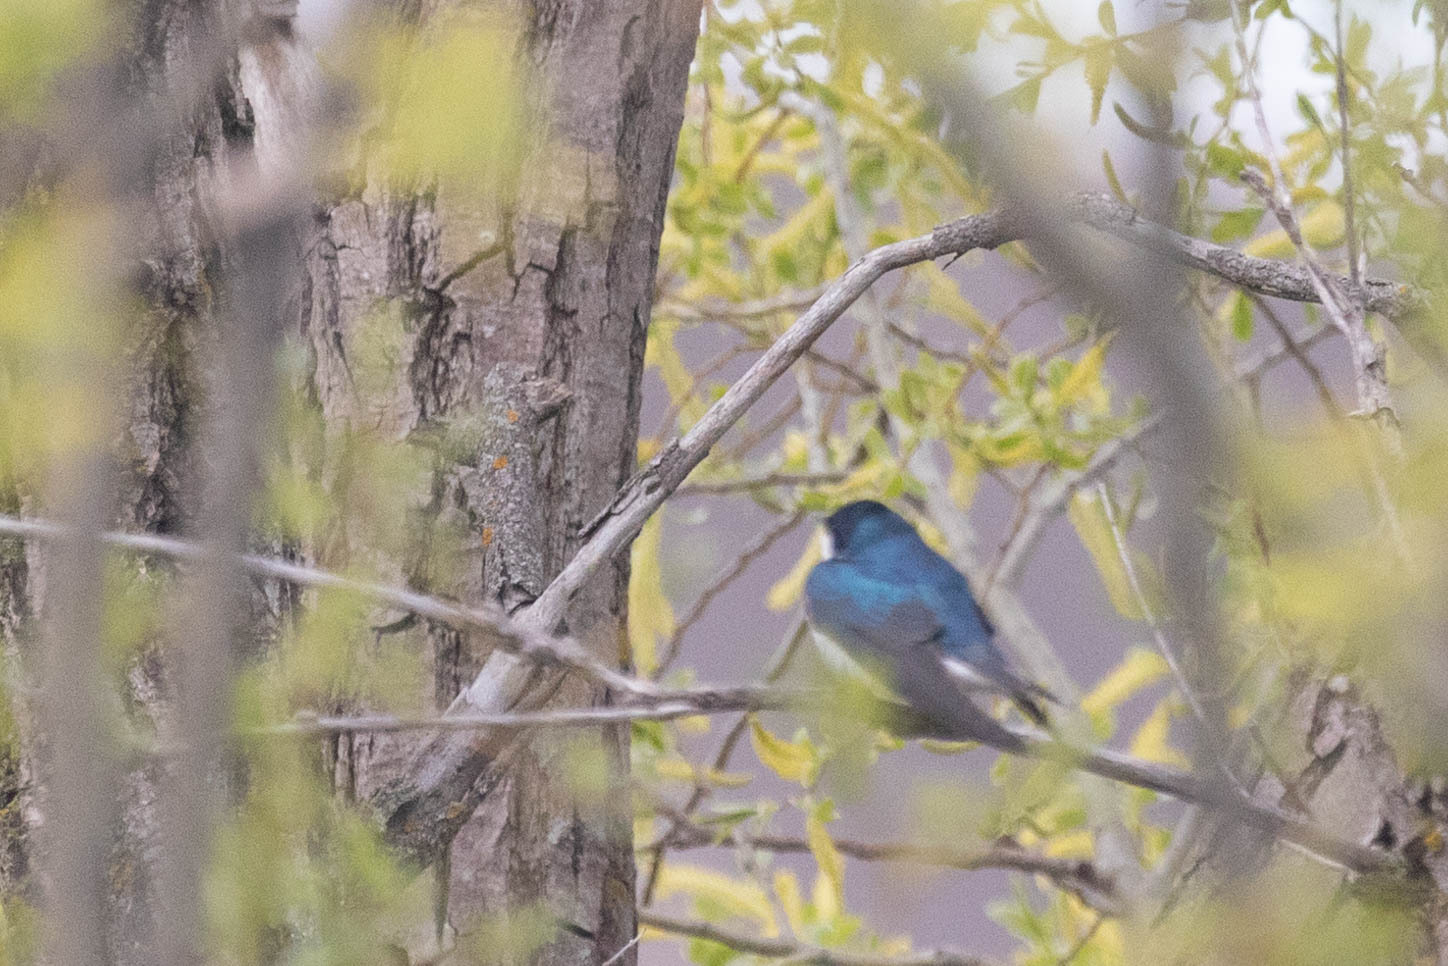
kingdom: Animalia
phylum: Chordata
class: Aves
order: Passeriformes
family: Hirundinidae
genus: Tachycineta
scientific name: Tachycineta bicolor
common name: Tree swallow
